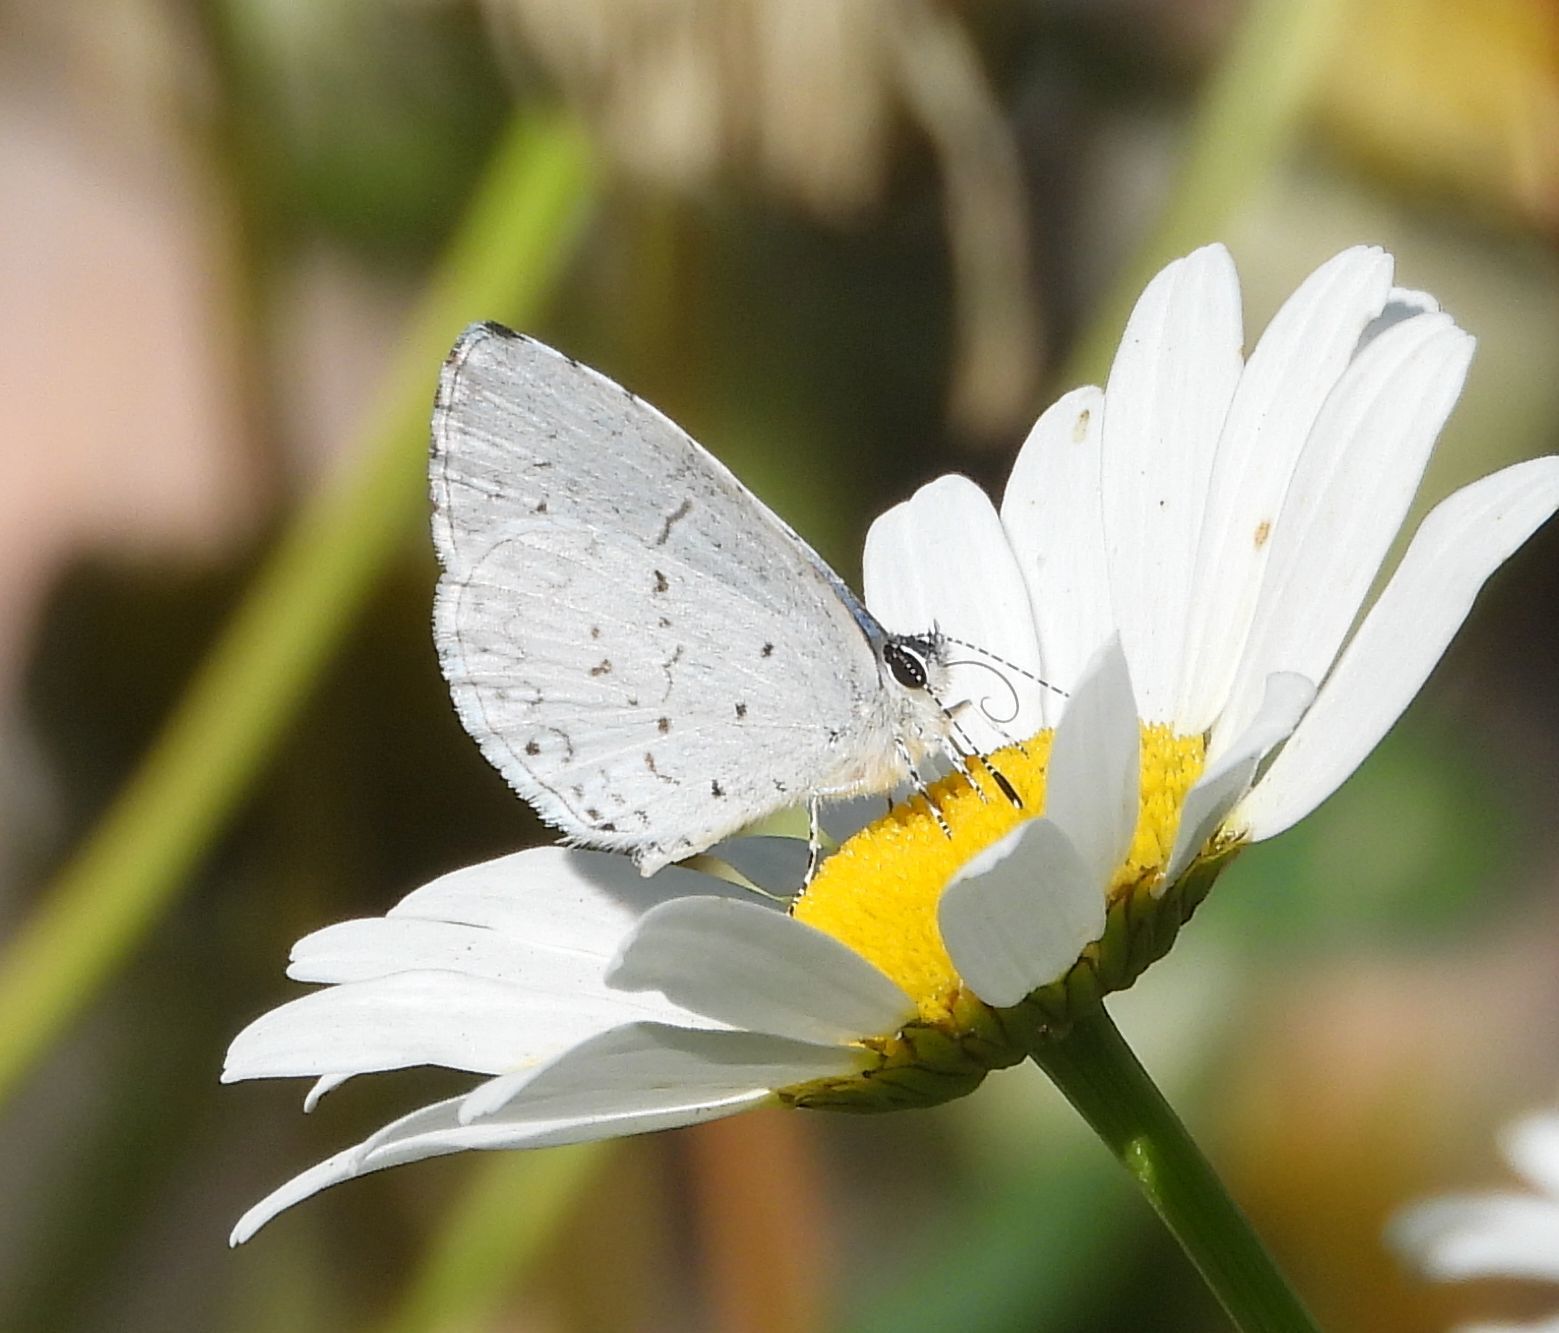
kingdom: Animalia
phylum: Arthropoda
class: Insecta
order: Lepidoptera
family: Lycaenidae
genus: Celastrina
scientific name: Celastrina lucia
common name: Lucia azure
